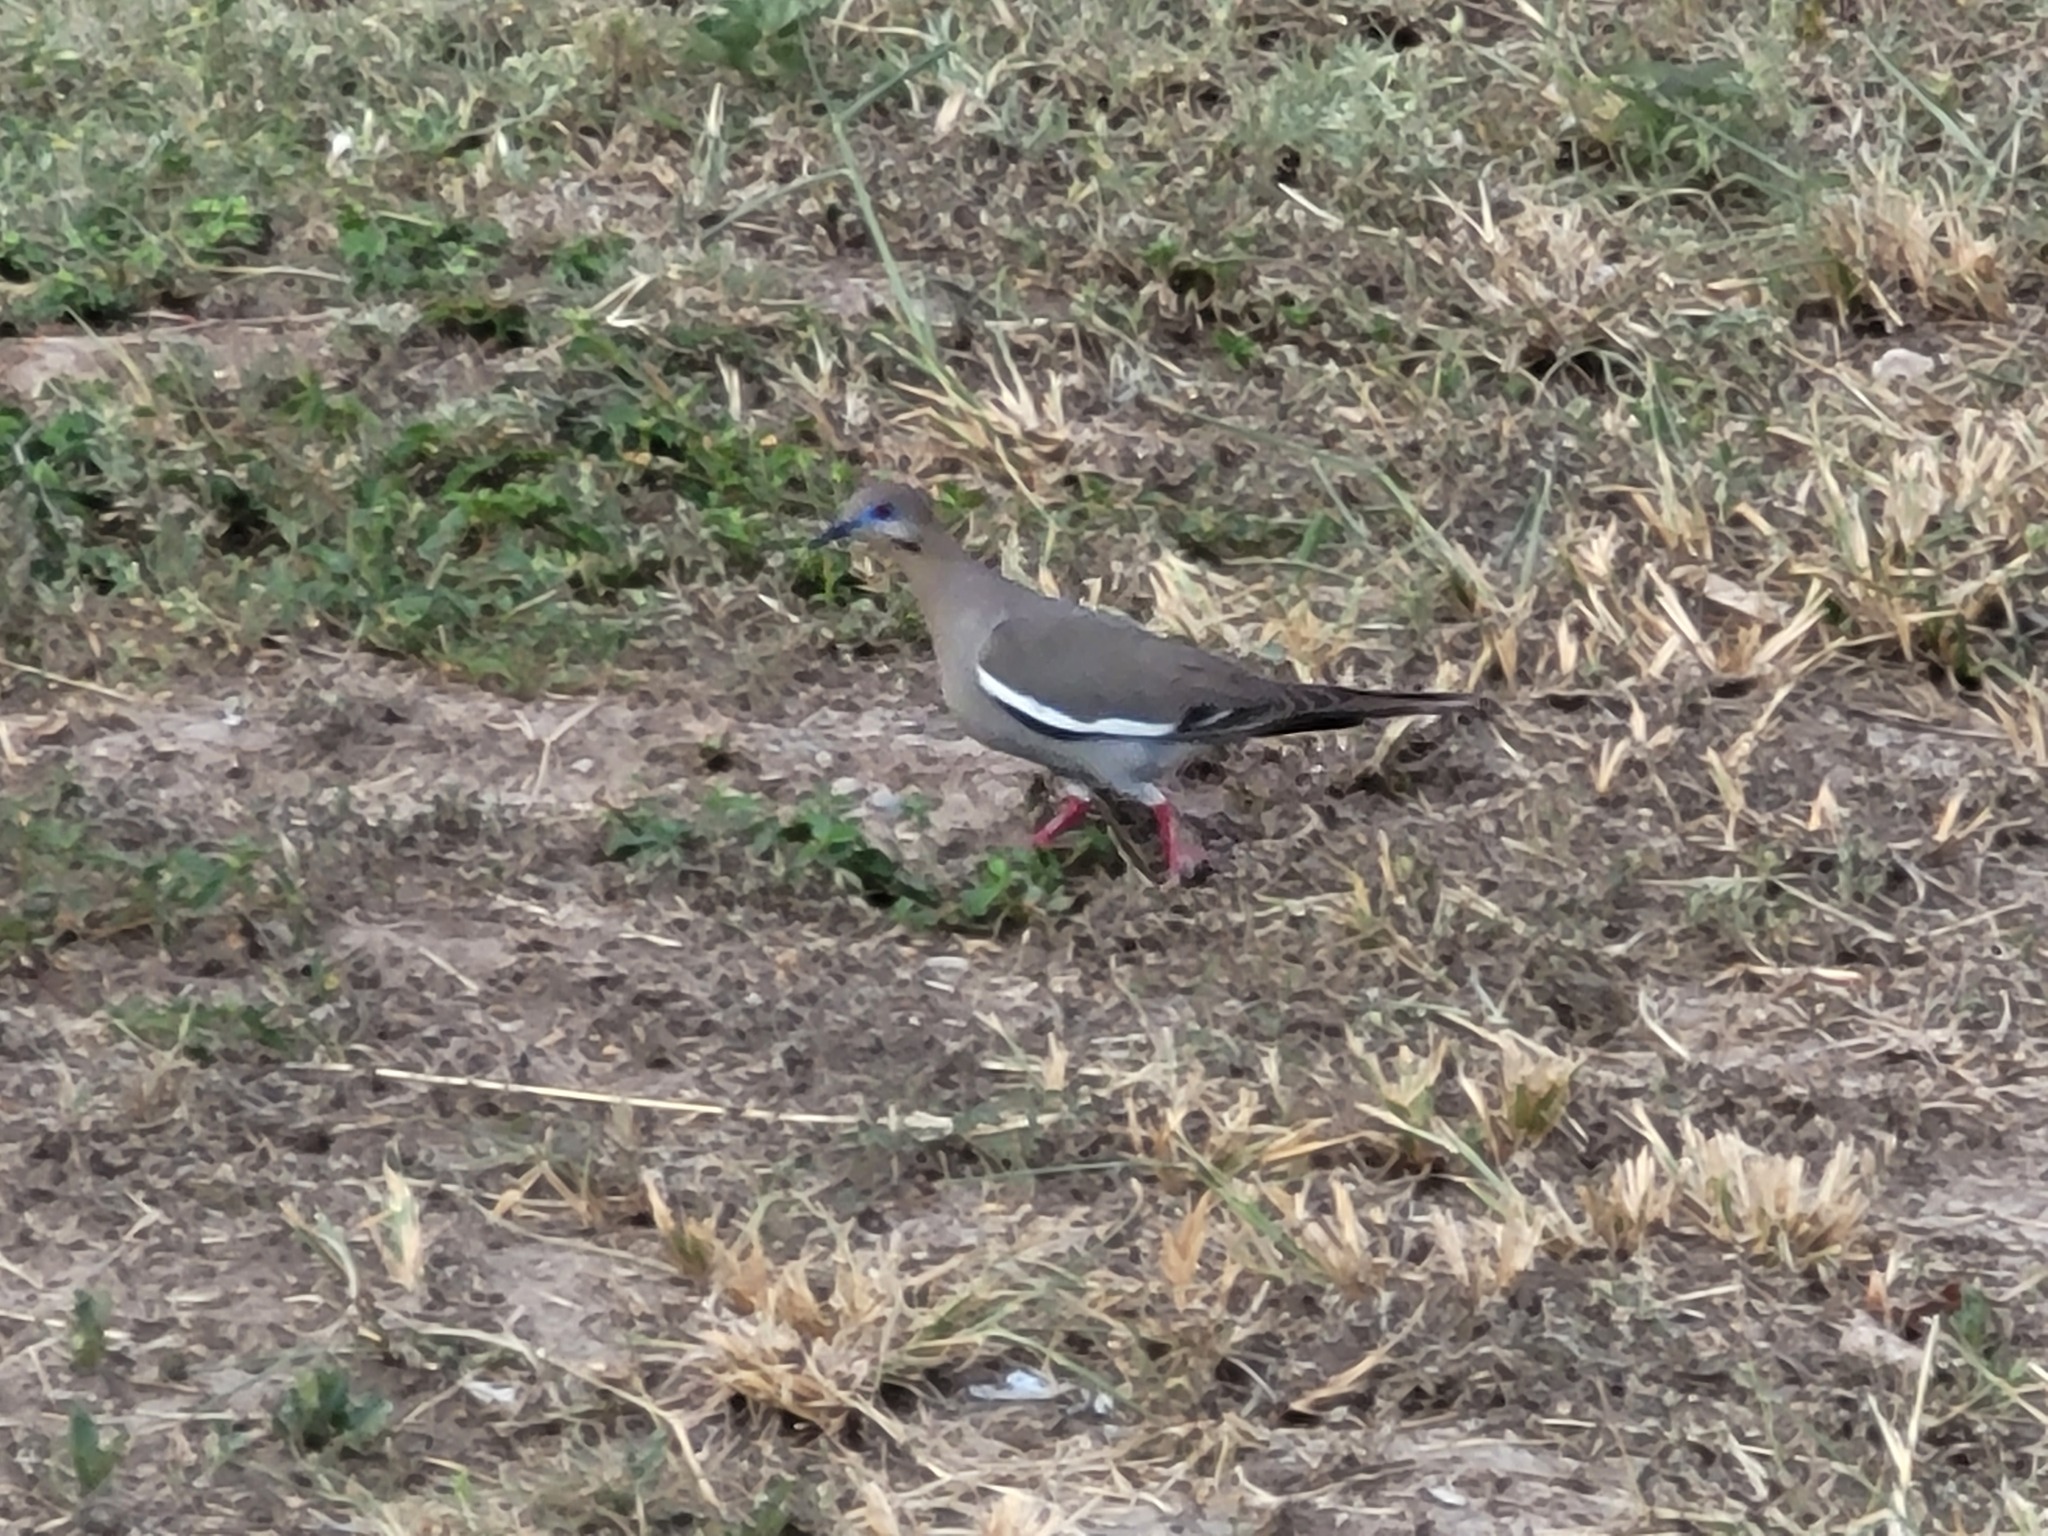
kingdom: Animalia
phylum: Chordata
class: Aves
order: Columbiformes
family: Columbidae
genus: Zenaida
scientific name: Zenaida asiatica
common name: White-winged dove
